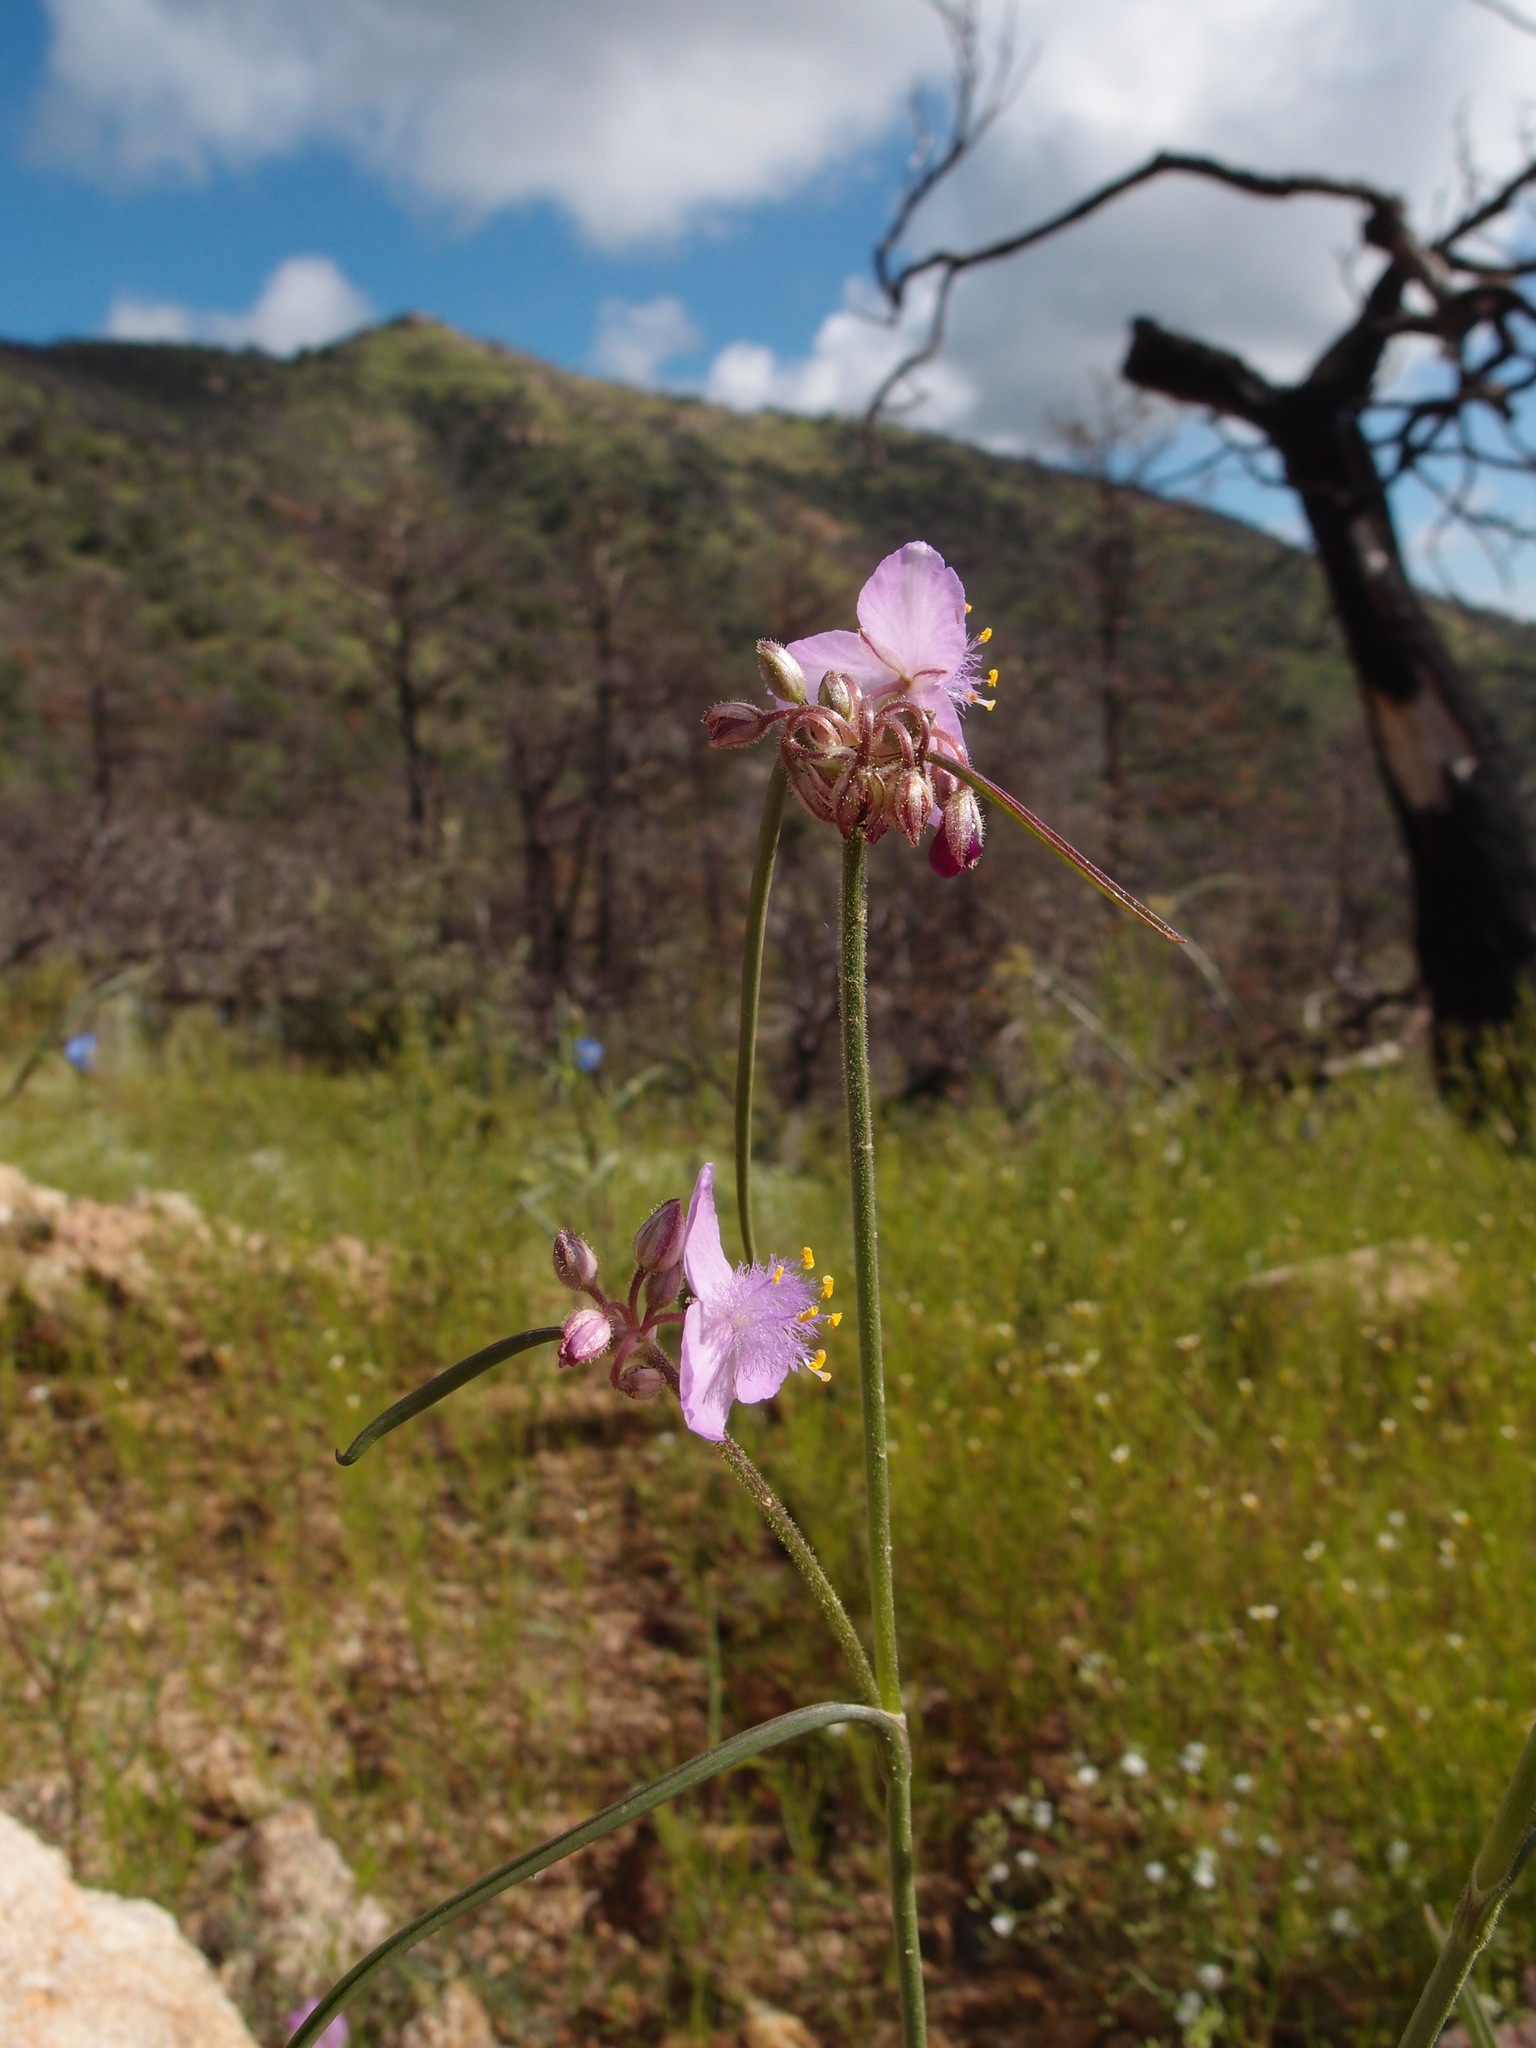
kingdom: Plantae
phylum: Tracheophyta
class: Liliopsida
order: Commelinales
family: Commelinaceae
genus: Tradescantia
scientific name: Tradescantia pinetorum
